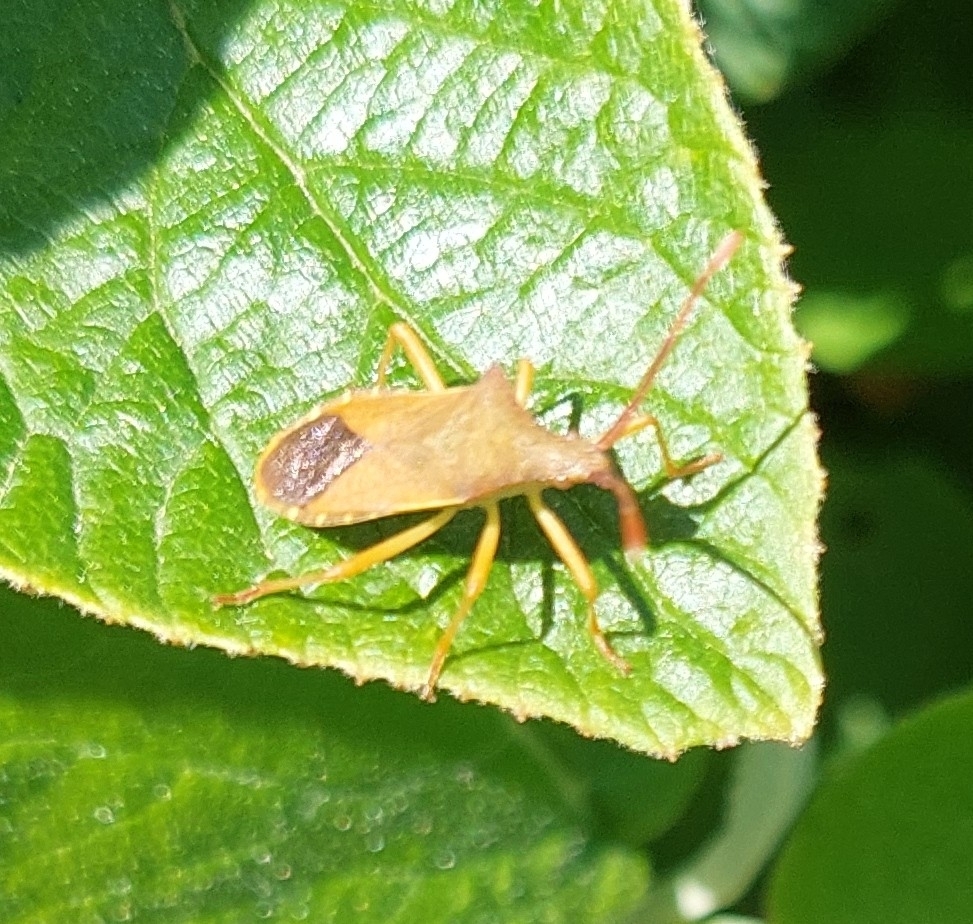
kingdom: Animalia
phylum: Arthropoda
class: Insecta
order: Hemiptera
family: Coreidae
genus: Gonocerus
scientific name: Gonocerus acuteangulatus
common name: Box bug
